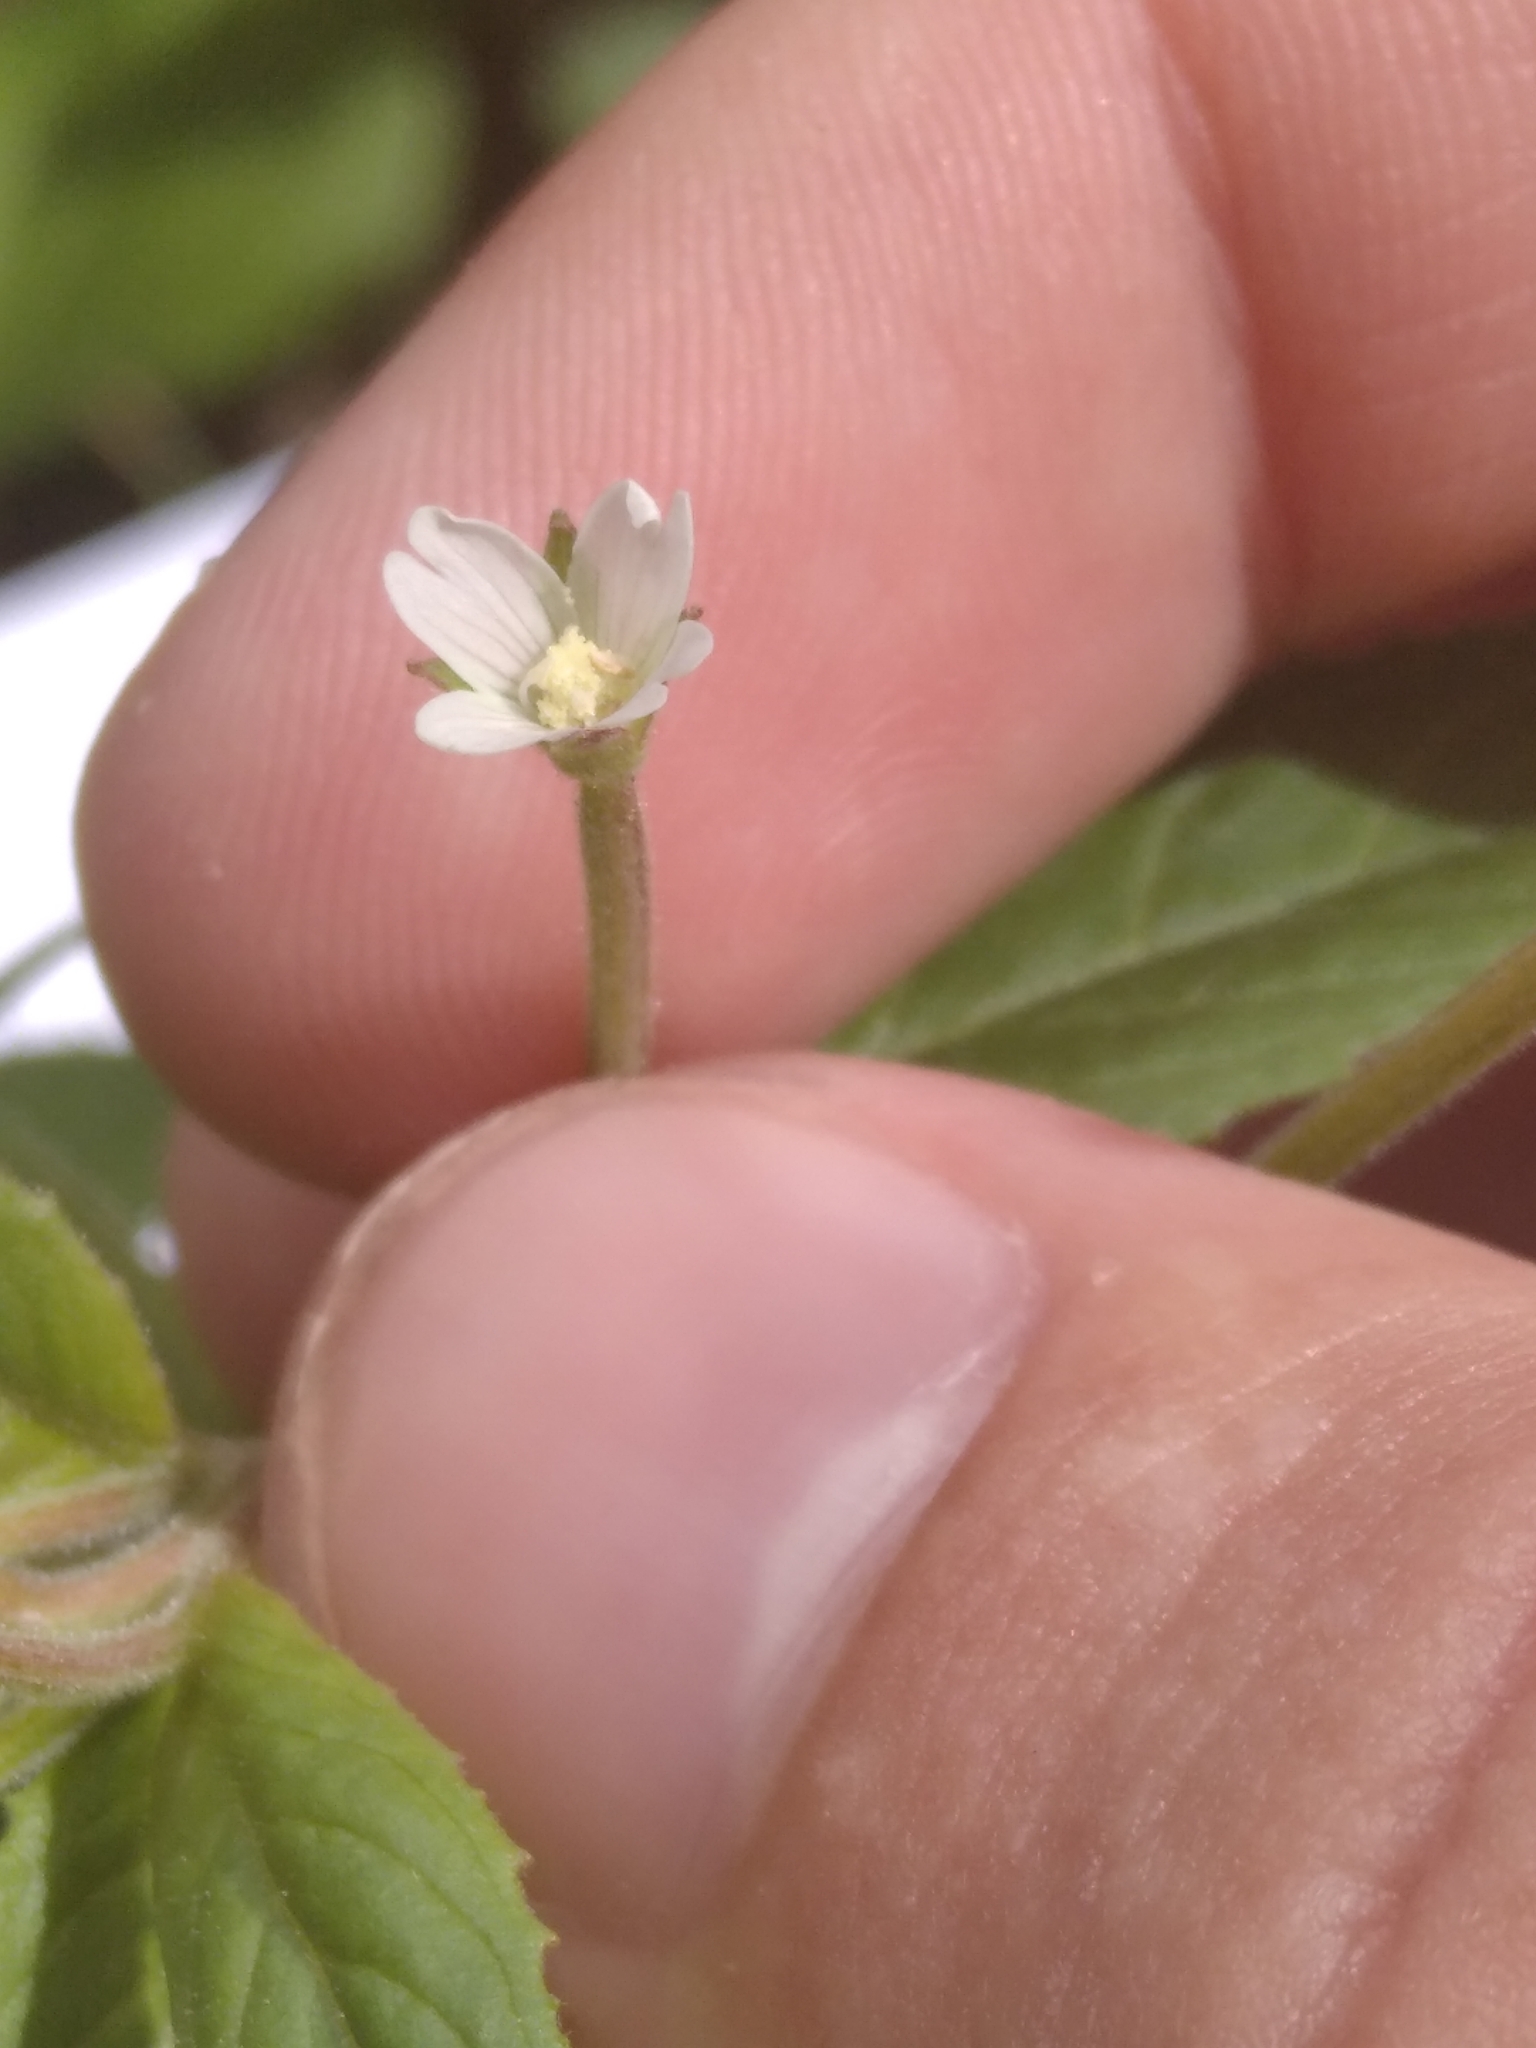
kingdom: Plantae
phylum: Tracheophyta
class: Magnoliopsida
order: Myrtales
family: Onagraceae
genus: Epilobium
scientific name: Epilobium pseudorubescens
